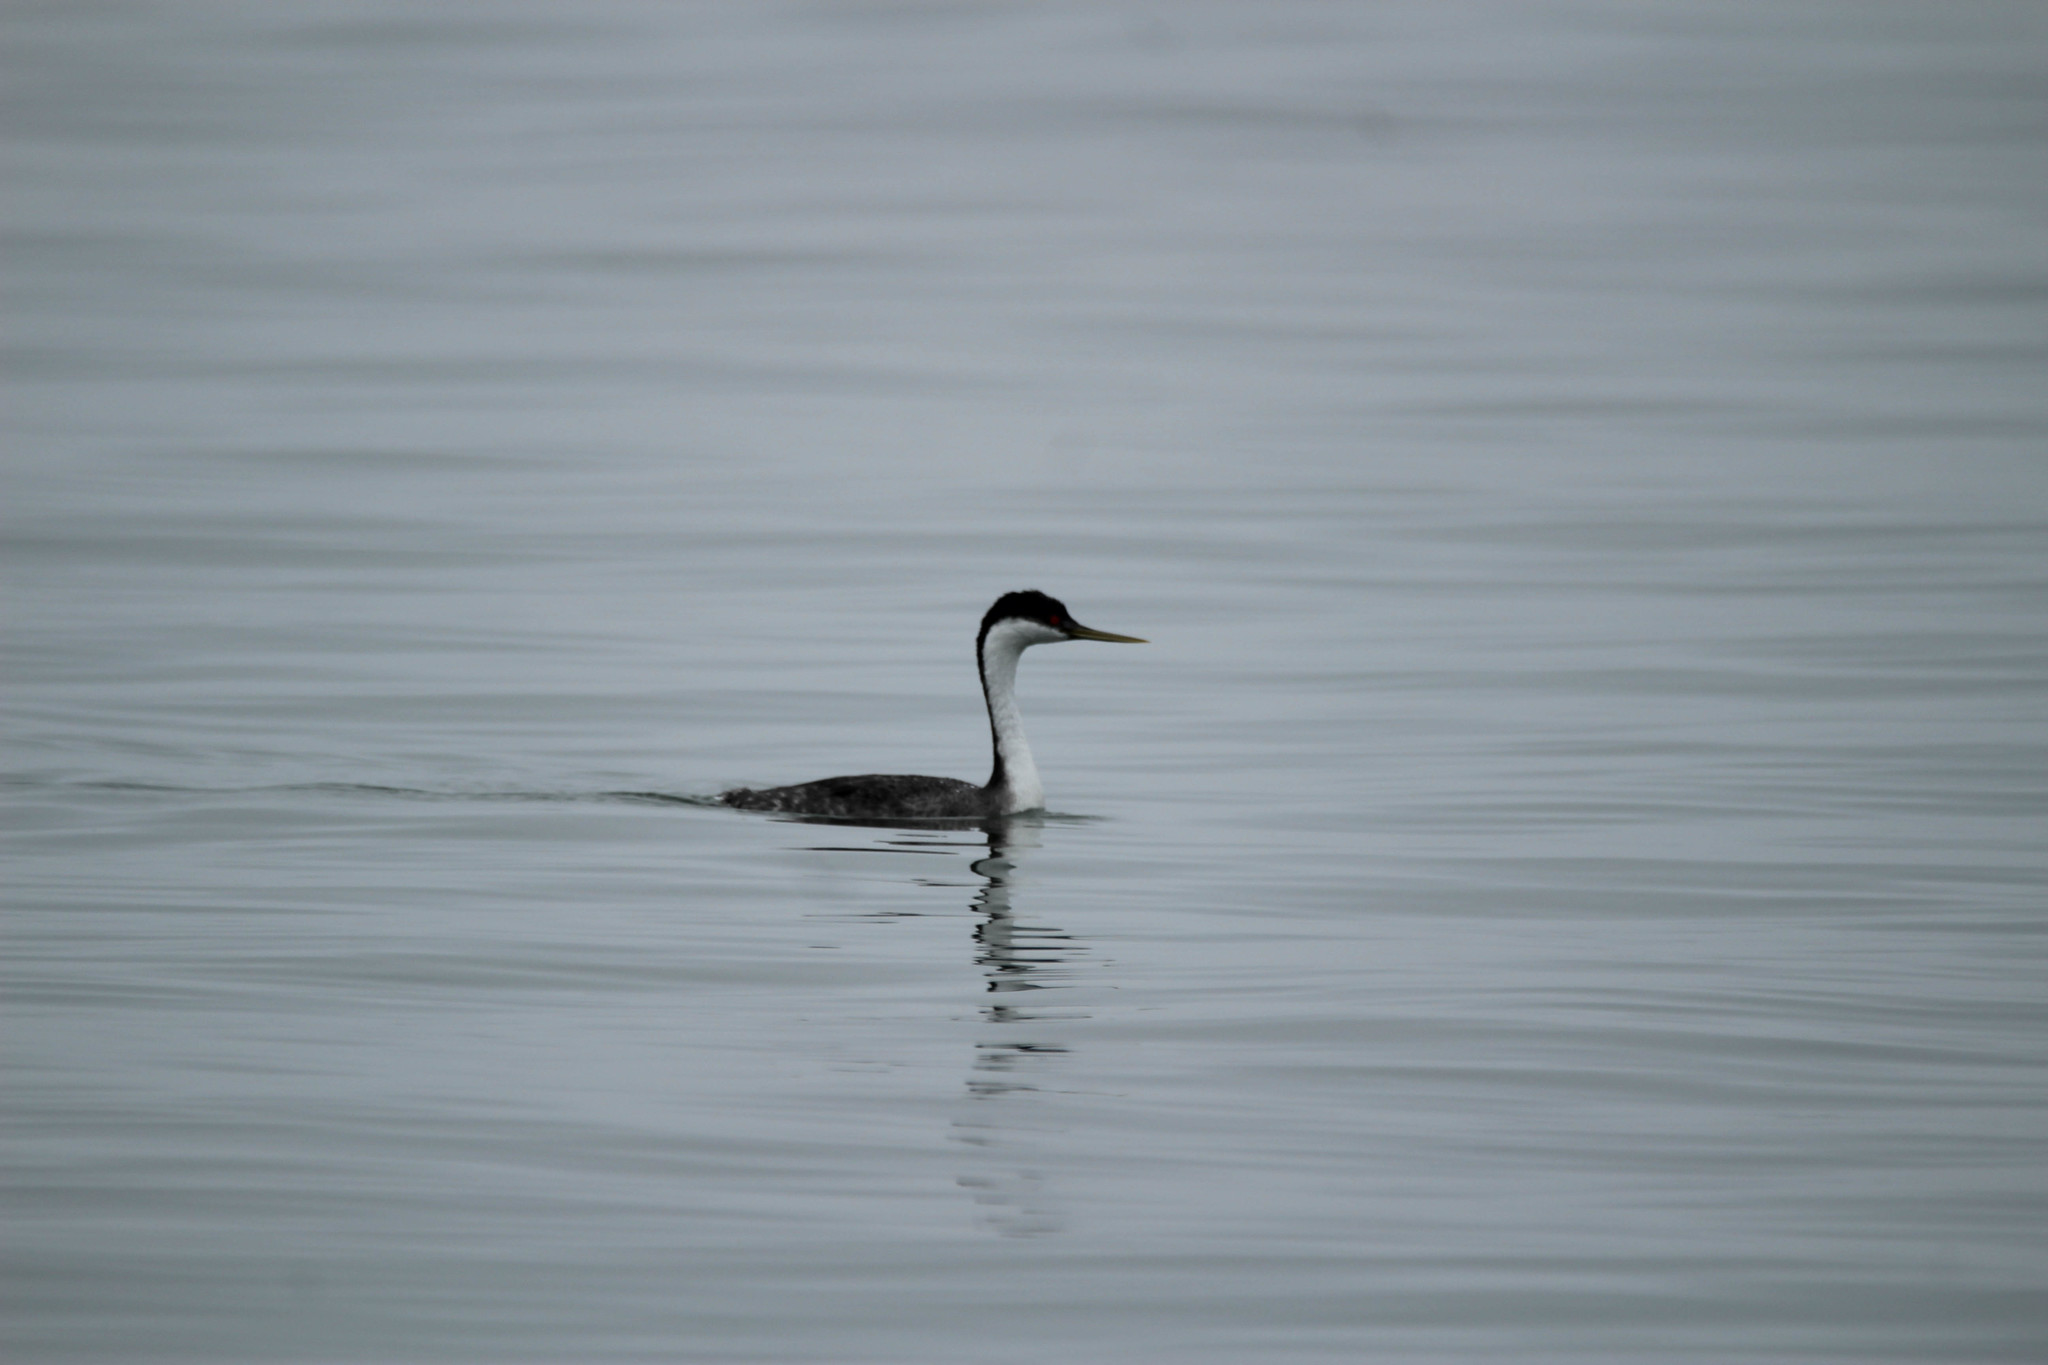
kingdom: Animalia
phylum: Chordata
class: Aves
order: Podicipediformes
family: Podicipedidae
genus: Aechmophorus
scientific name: Aechmophorus occidentalis
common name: Western grebe
